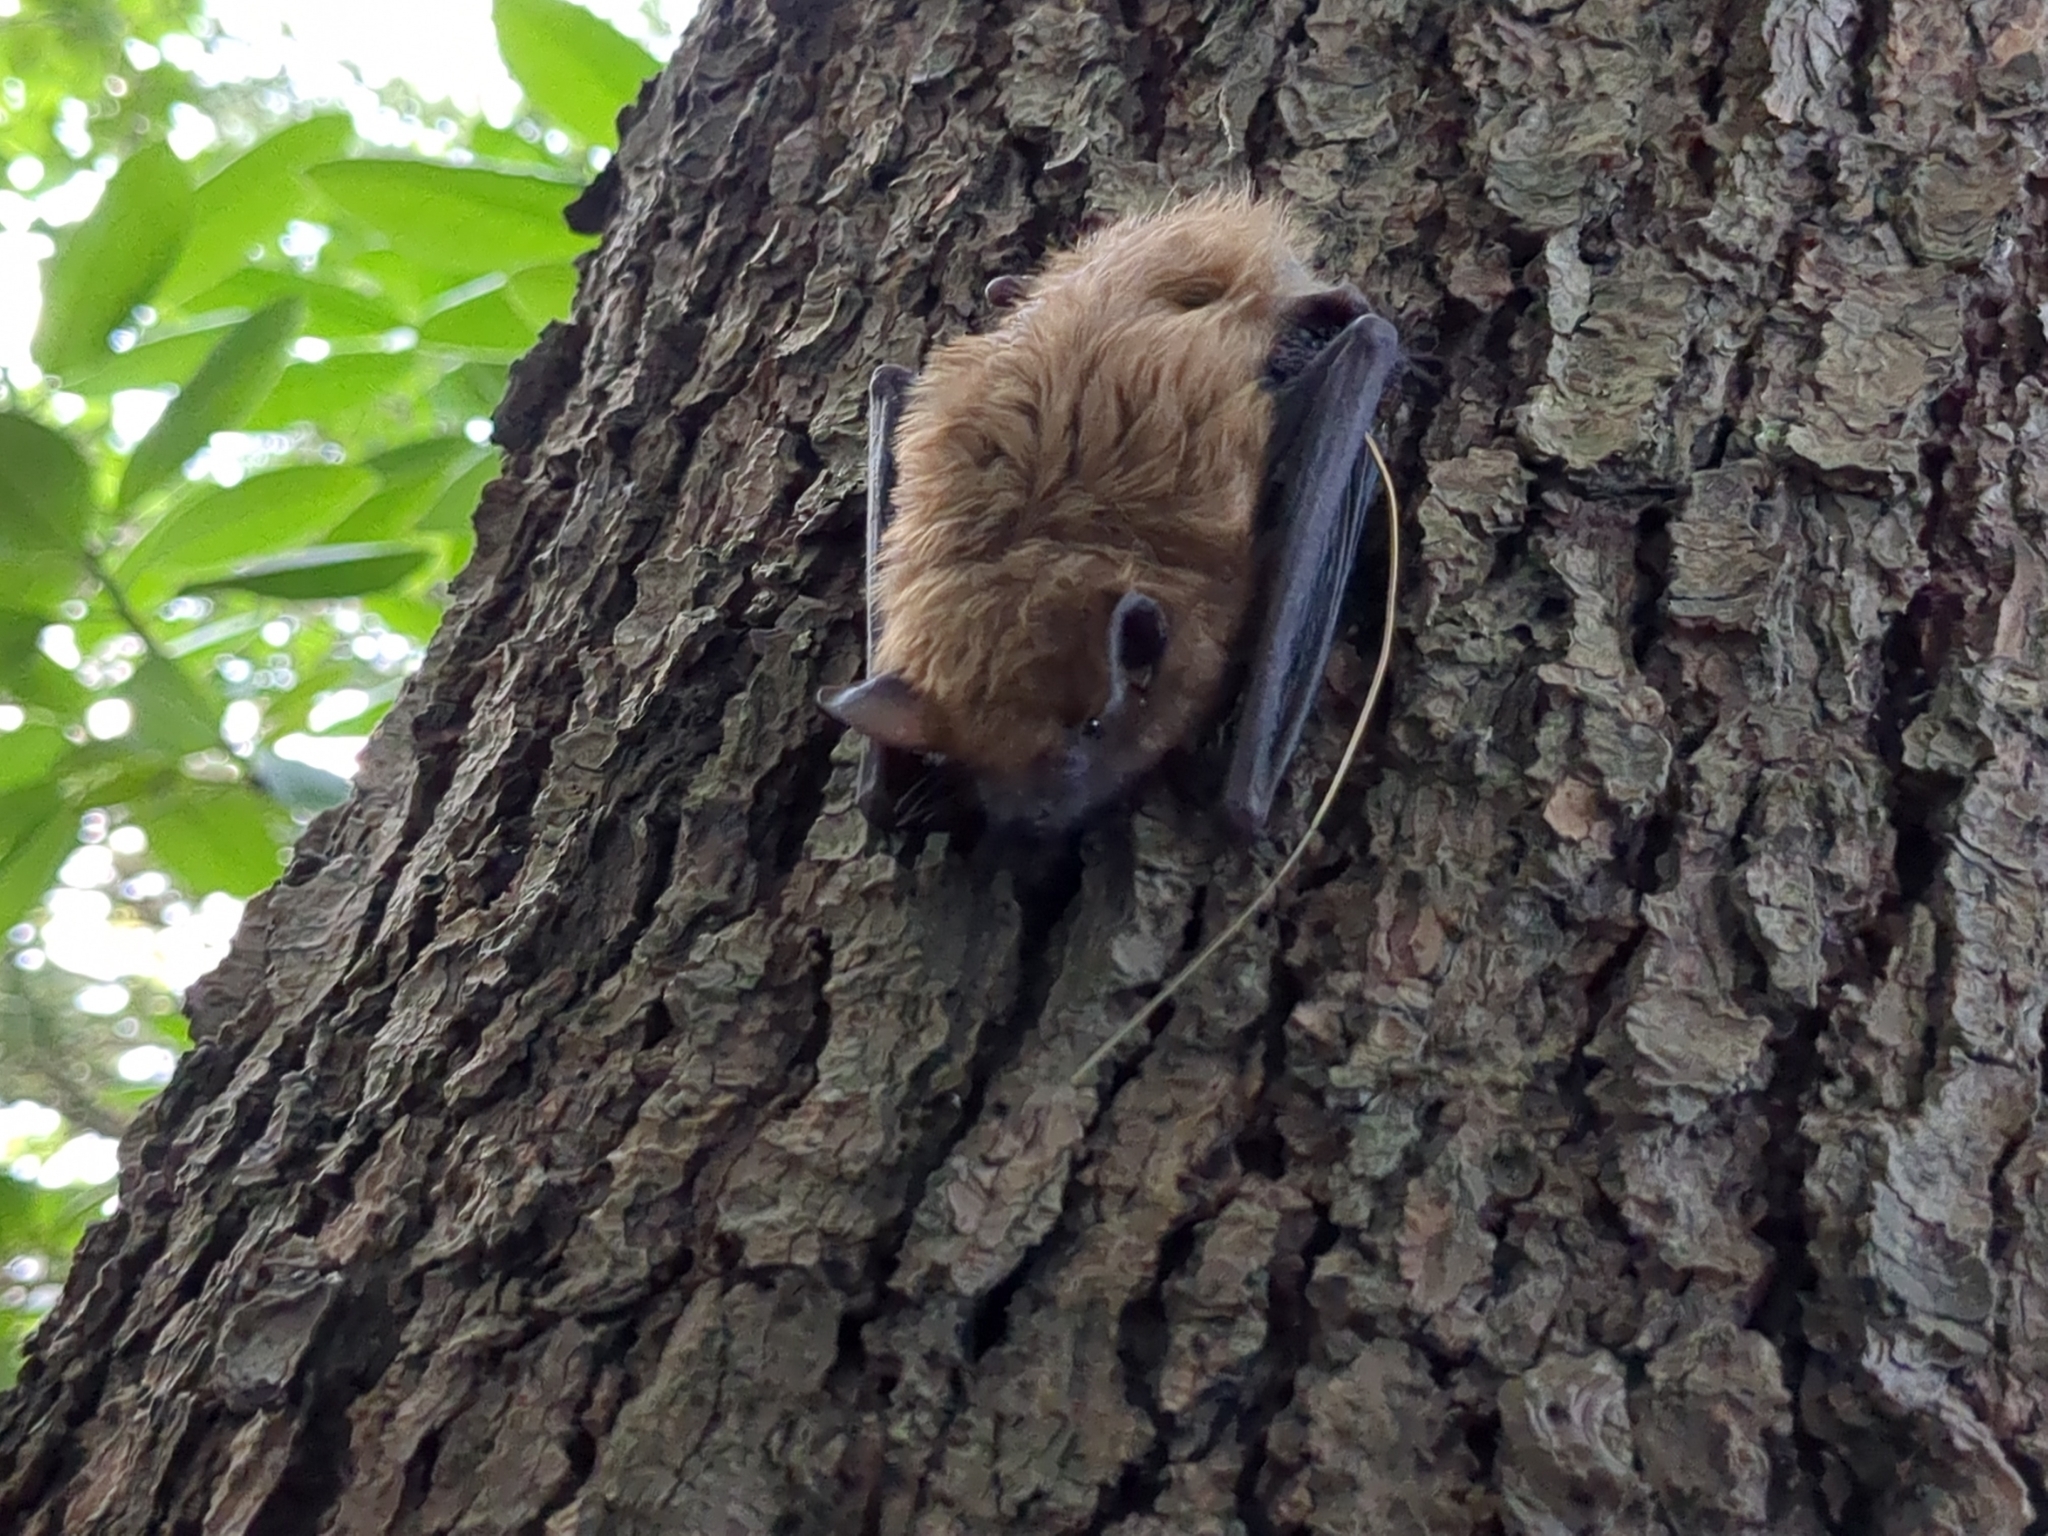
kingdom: Animalia
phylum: Chordata
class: Mammalia
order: Chiroptera
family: Vespertilionidae
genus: Eptesicus
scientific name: Eptesicus fuscus
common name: Big brown bat
